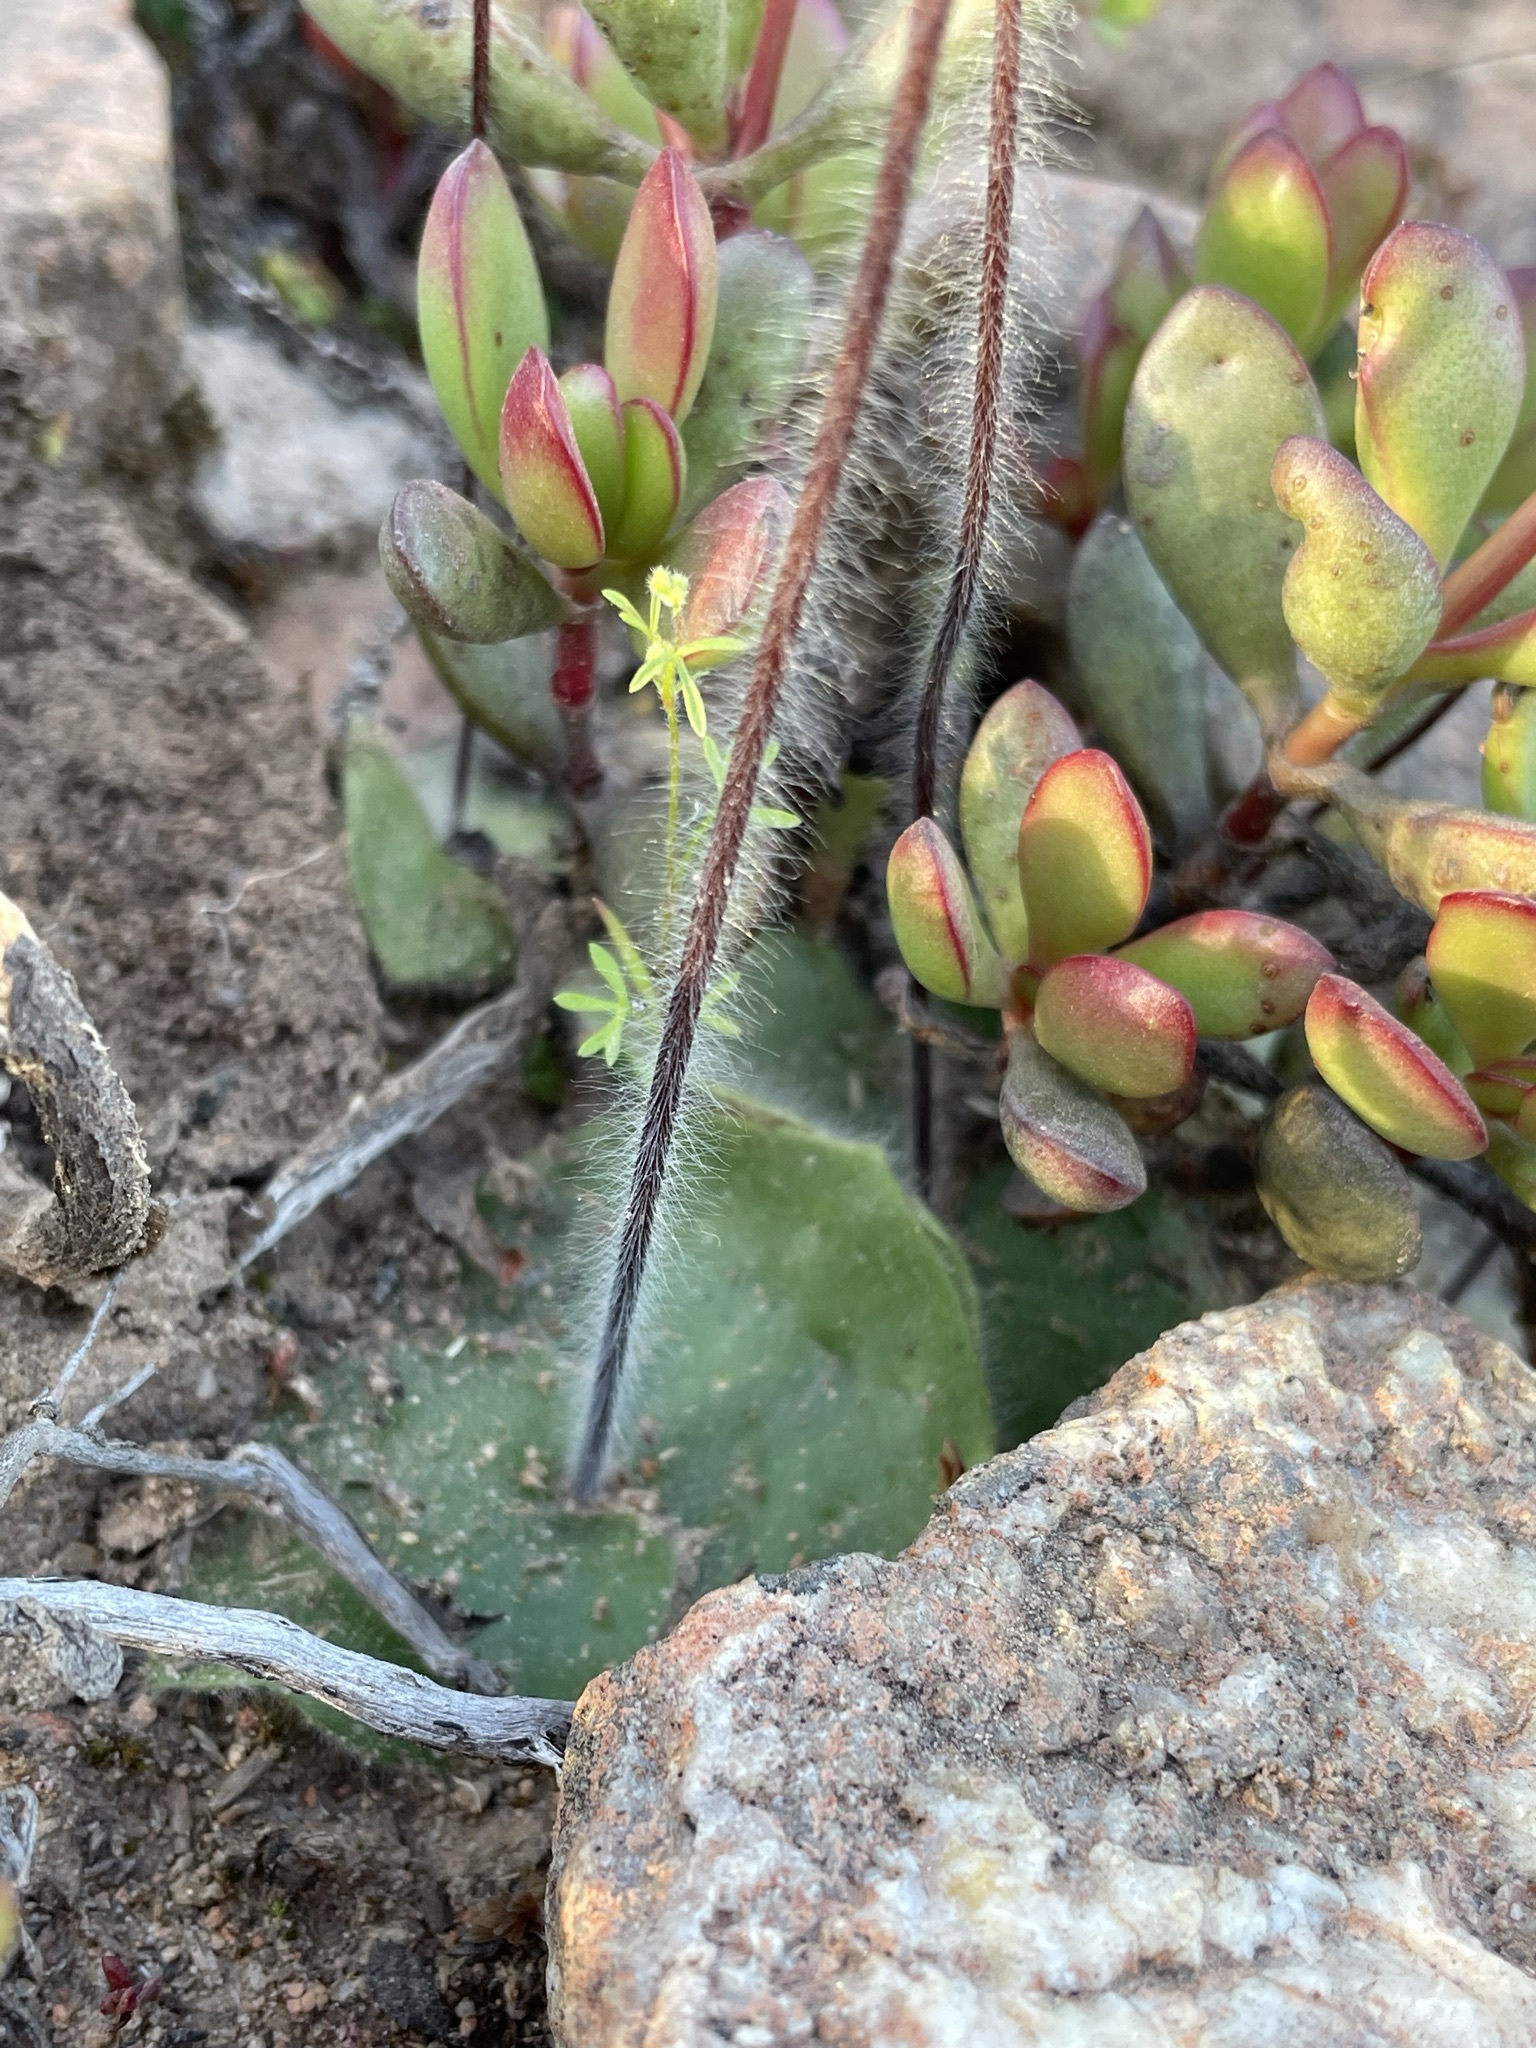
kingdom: Plantae
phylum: Tracheophyta
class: Liliopsida
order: Asparagales
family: Orchidaceae
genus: Holothrix
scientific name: Holothrix villosa
